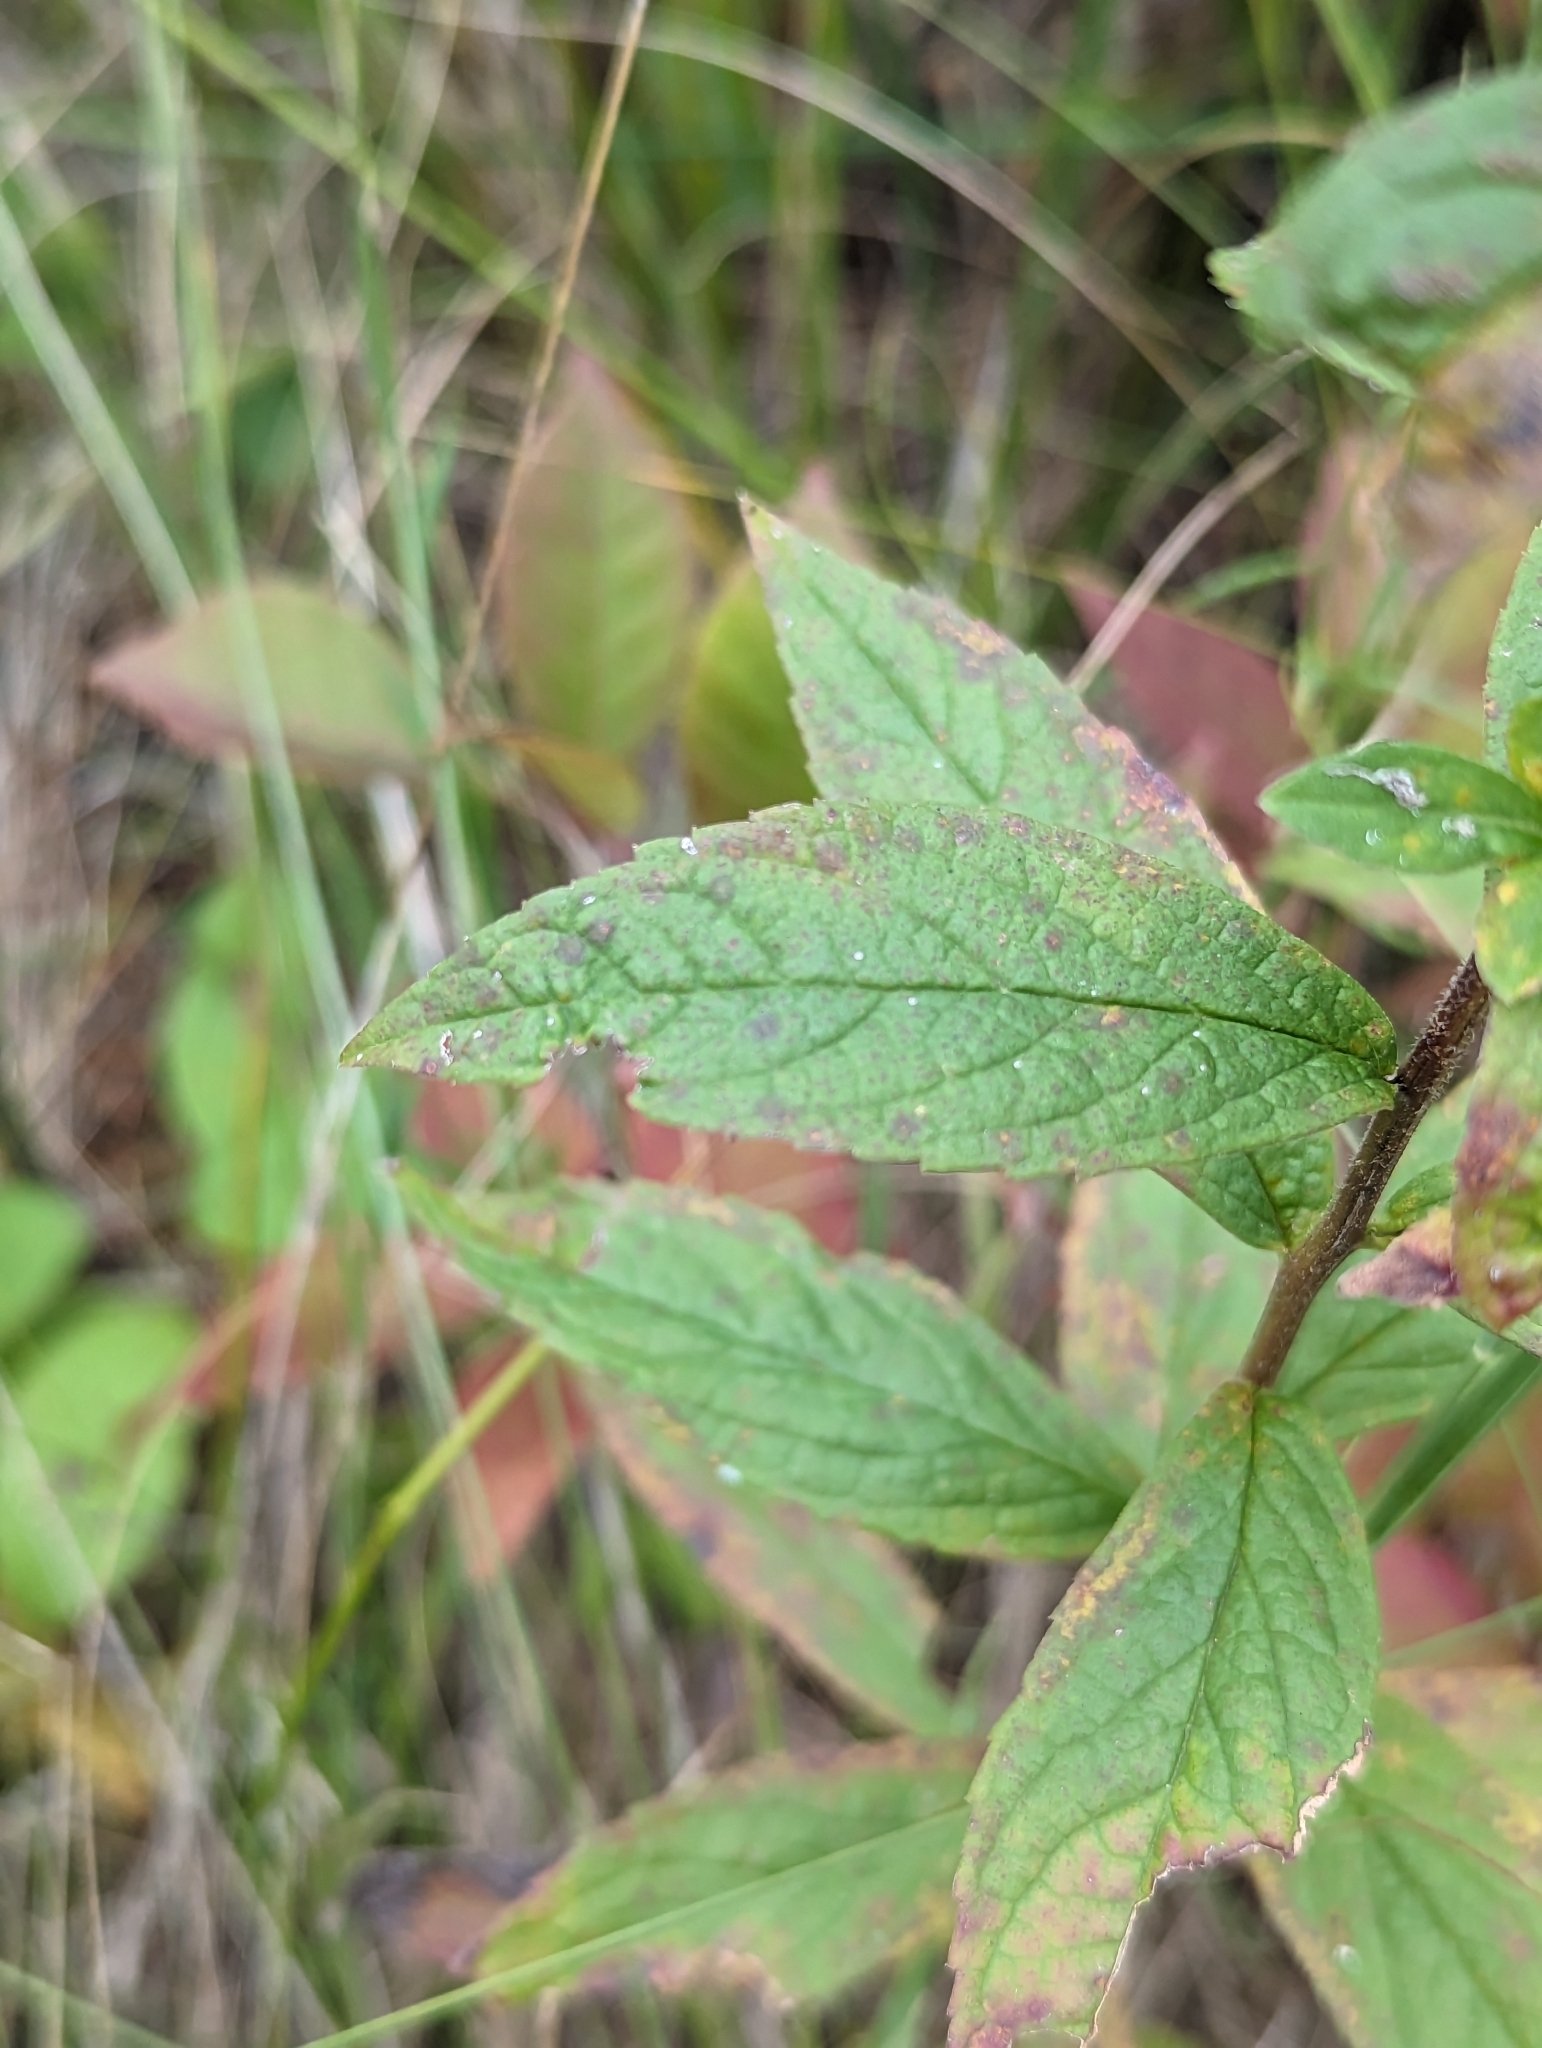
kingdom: Plantae
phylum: Tracheophyta
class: Magnoliopsida
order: Asterales
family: Asteraceae
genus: Solidago
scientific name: Solidago rugosa
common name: Rough-stemmed goldenrod
